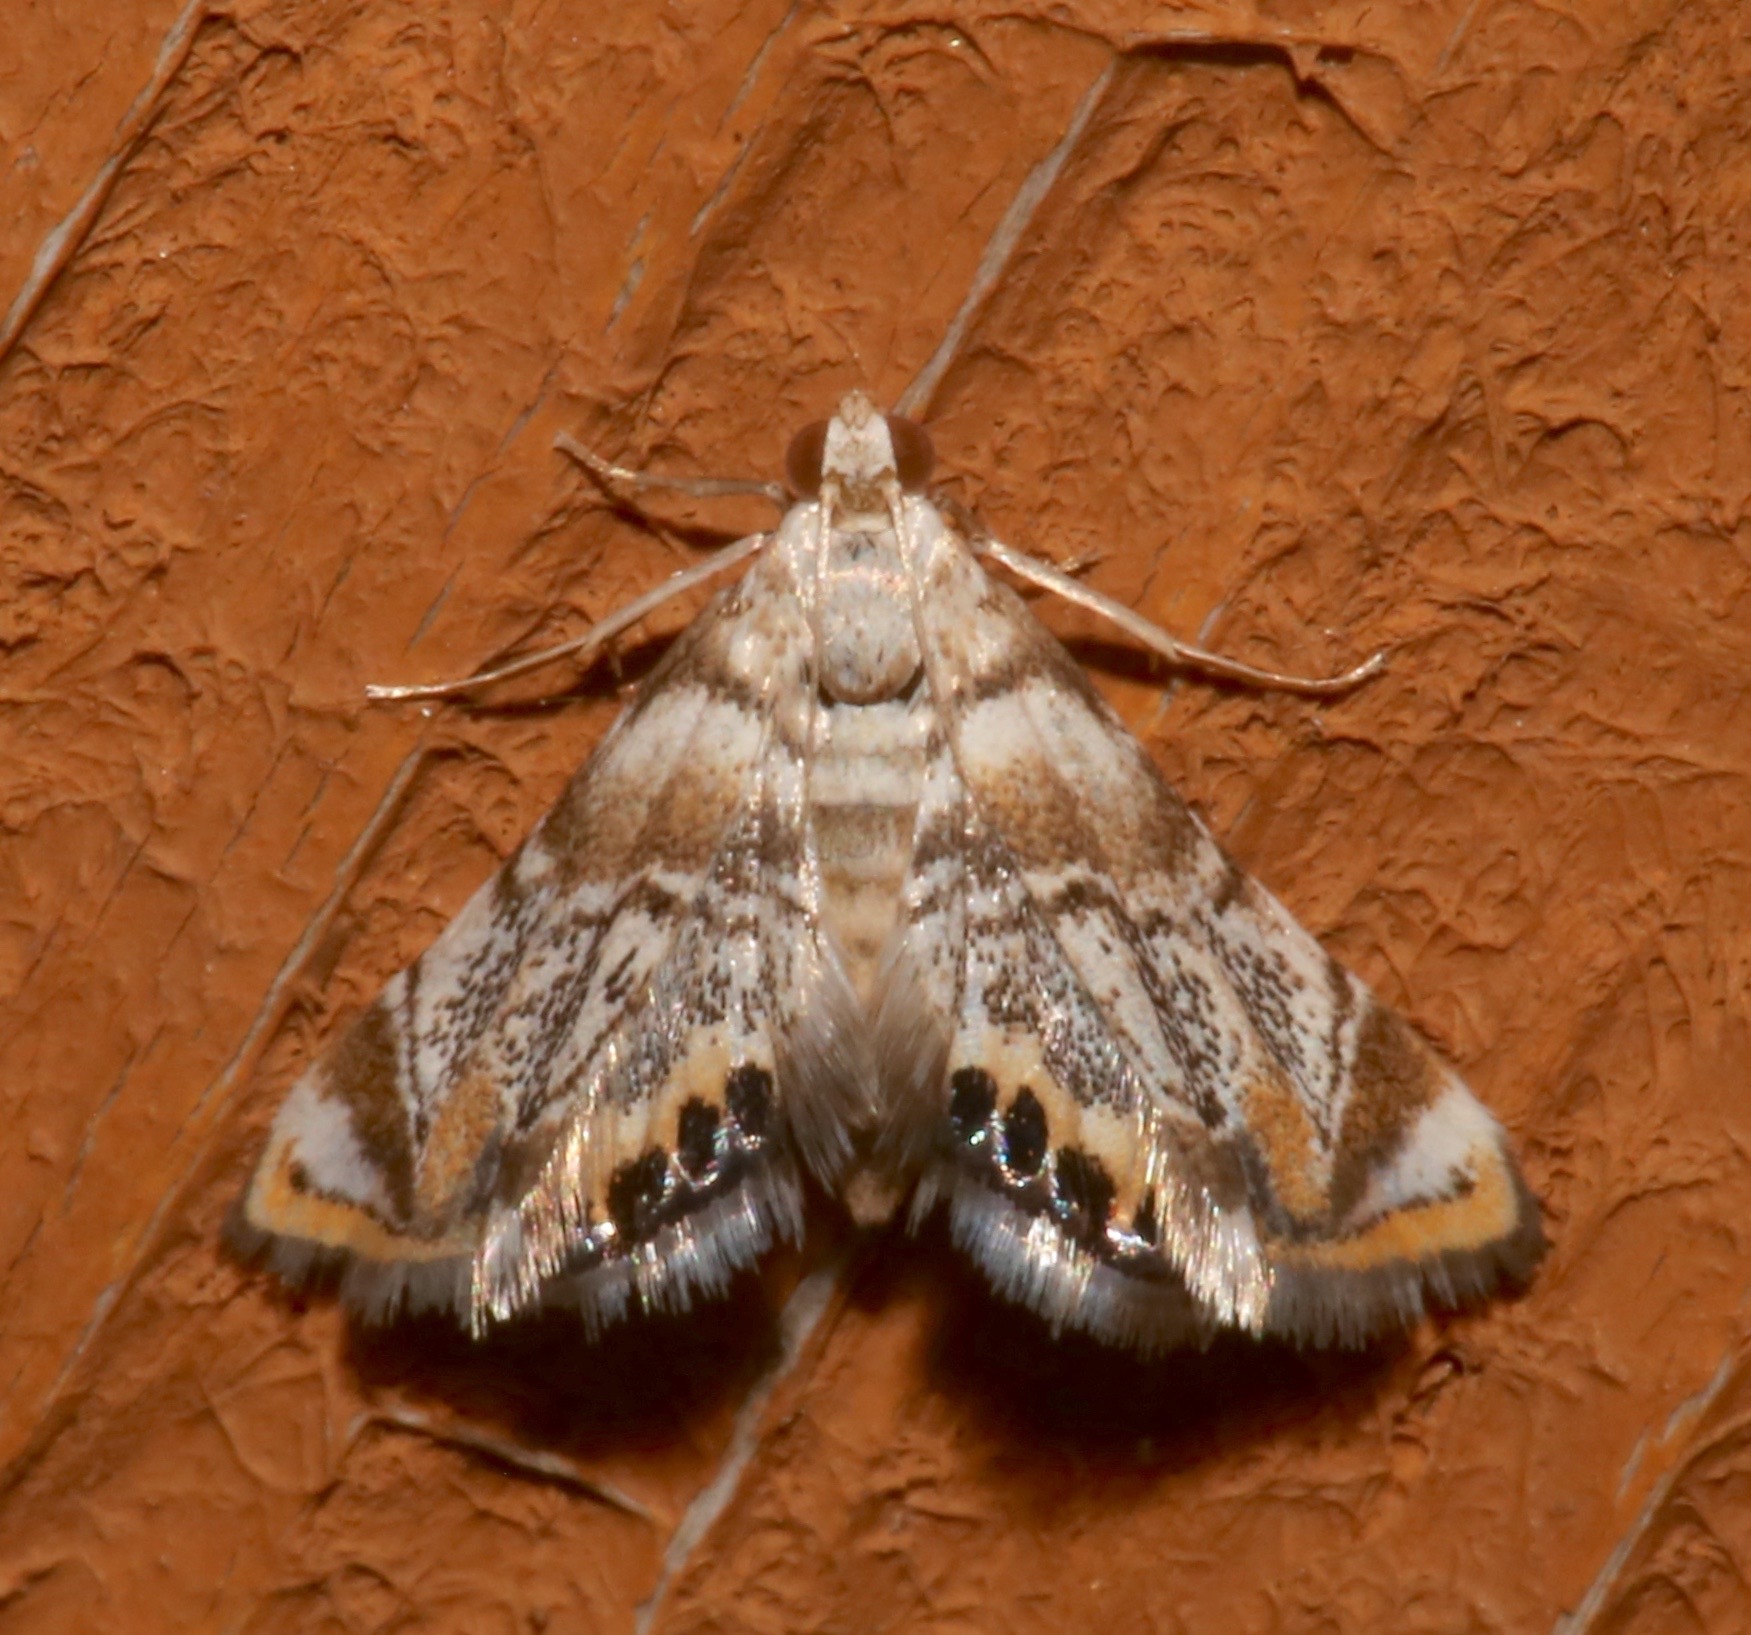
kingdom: Animalia
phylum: Arthropoda
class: Insecta
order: Lepidoptera
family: Crambidae
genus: Eoparargyractis
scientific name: Eoparargyractis irroratalis
